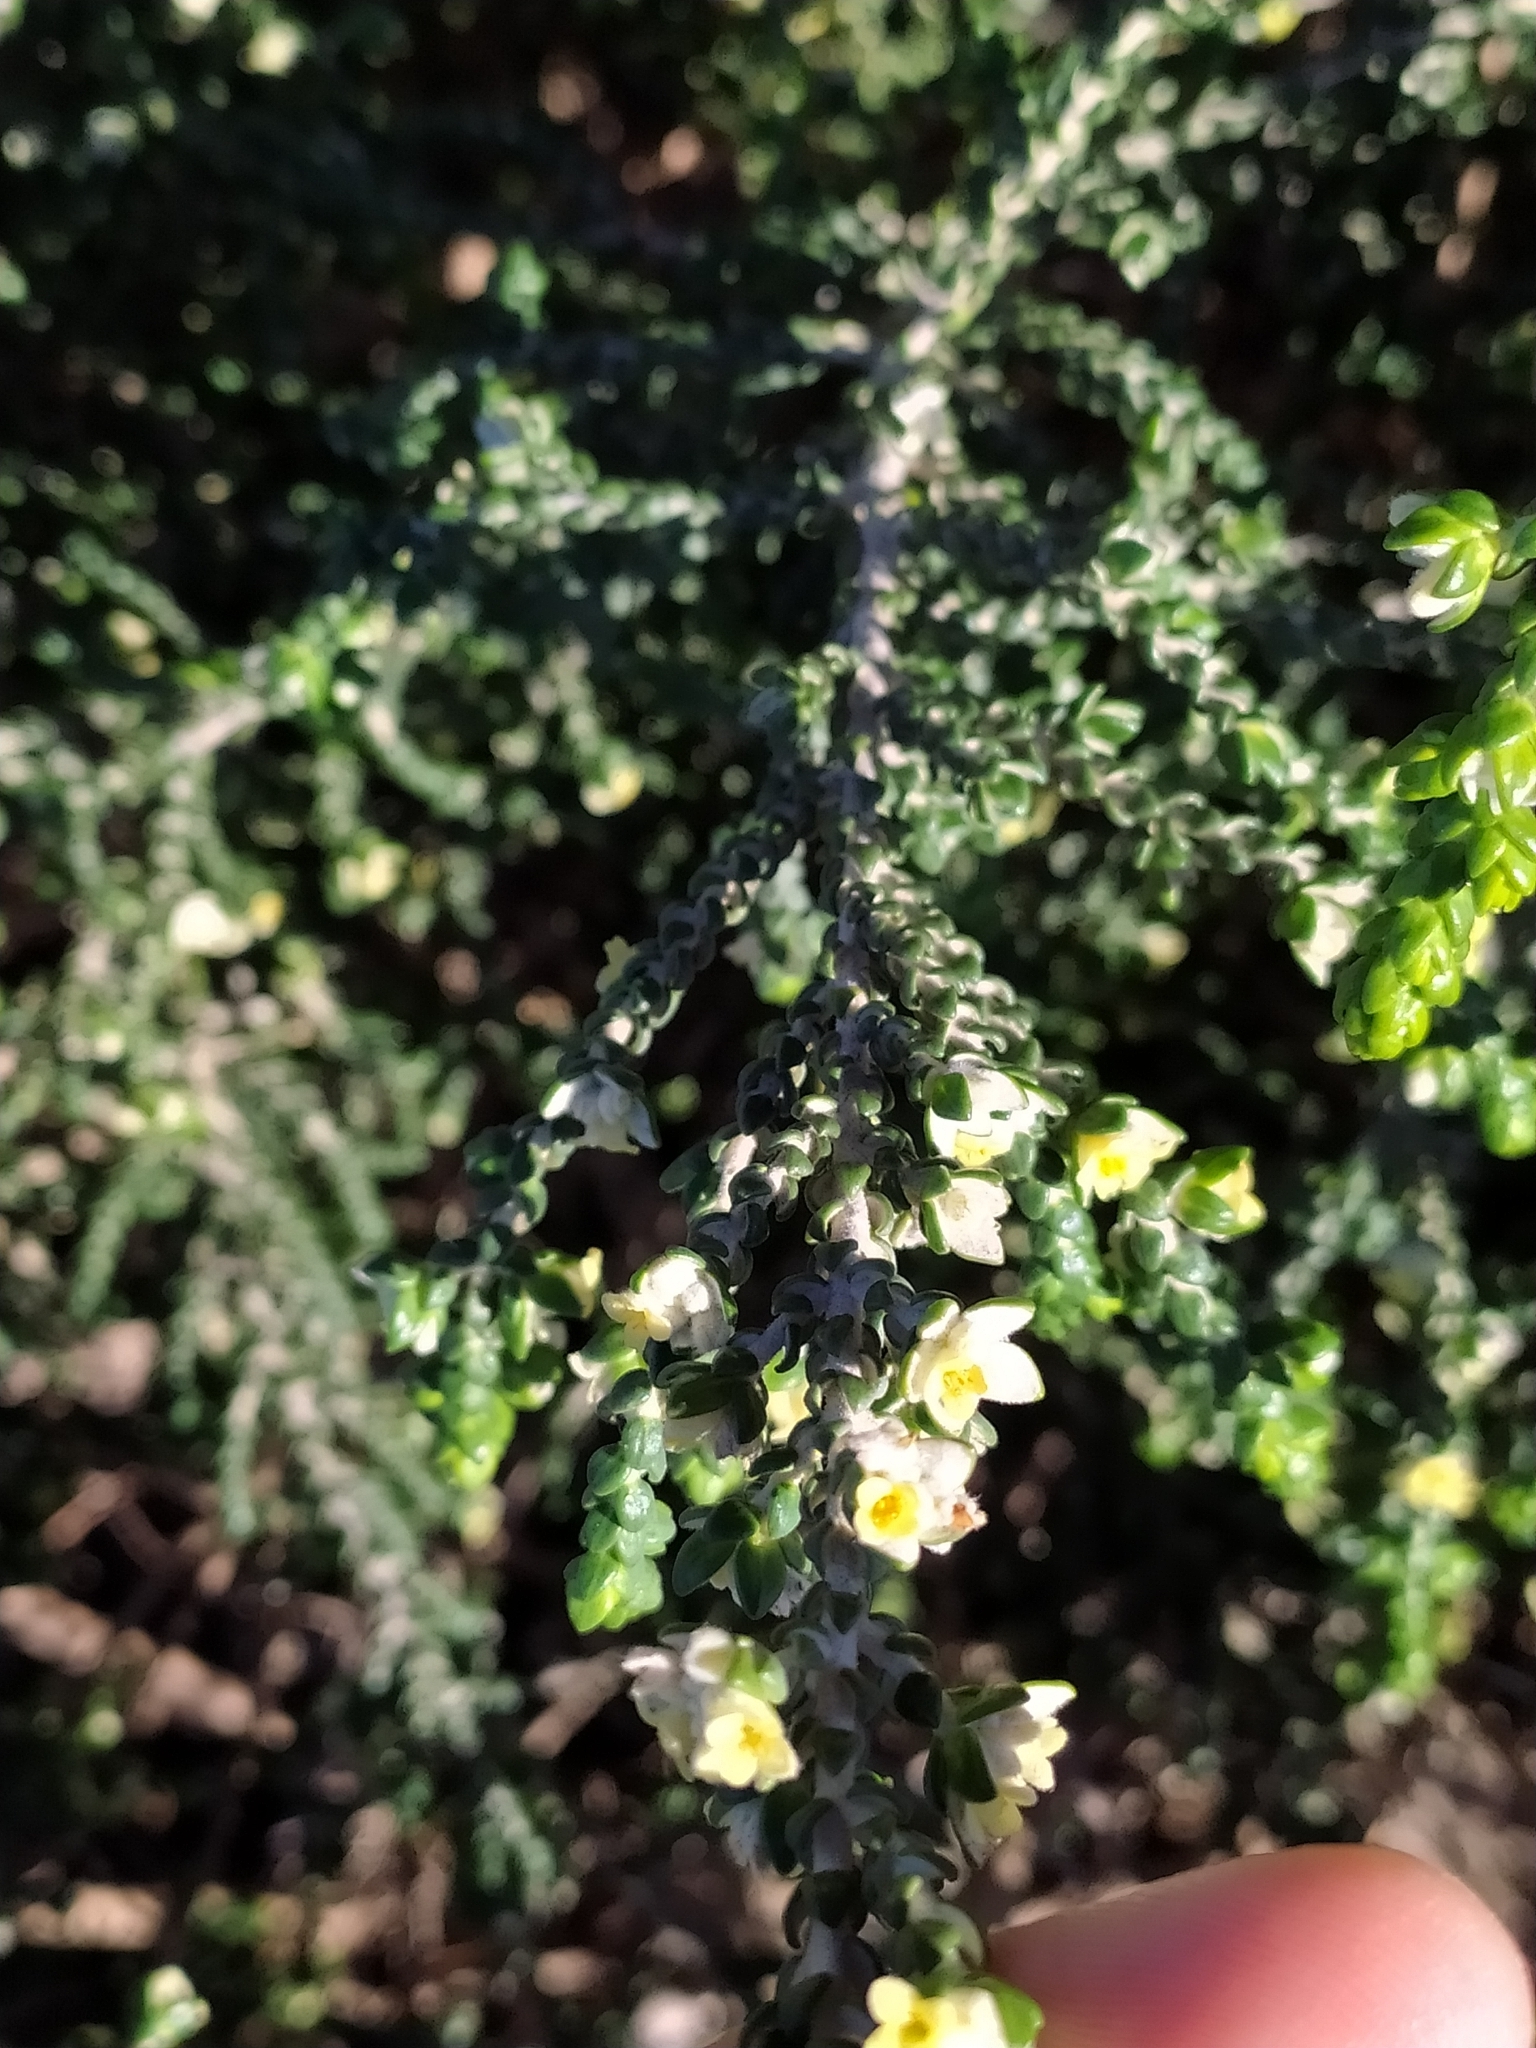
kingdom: Plantae
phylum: Tracheophyta
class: Magnoliopsida
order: Malvales
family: Thymelaeaceae
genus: Thymelaea
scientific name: Thymelaea hirsuta
